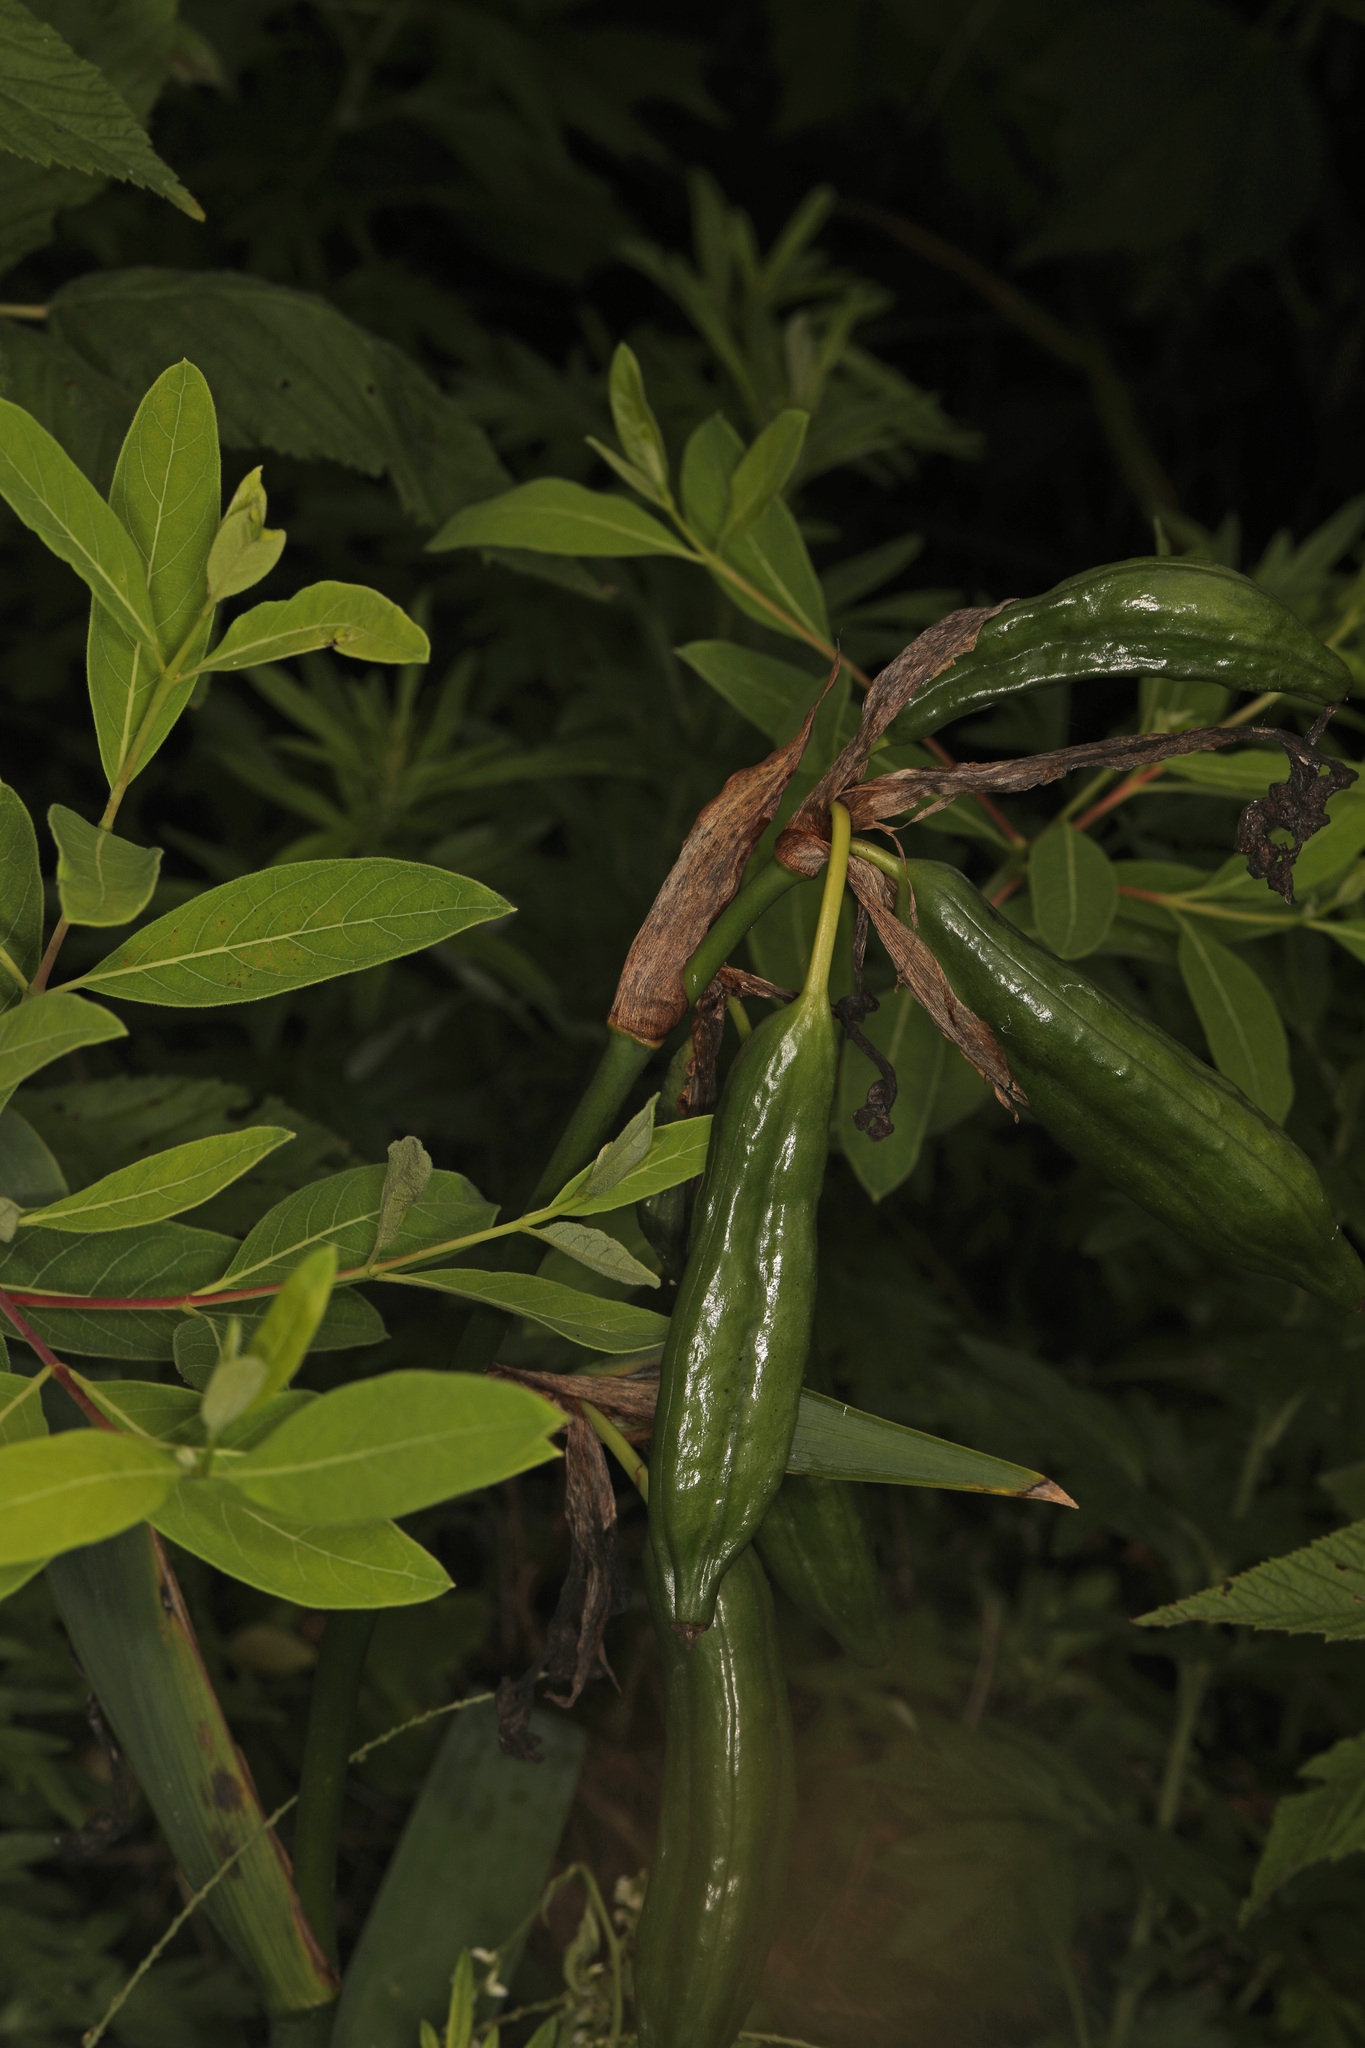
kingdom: Plantae
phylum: Tracheophyta
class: Liliopsida
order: Asparagales
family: Iridaceae
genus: Iris
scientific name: Iris pseudacorus
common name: Yellow flag
